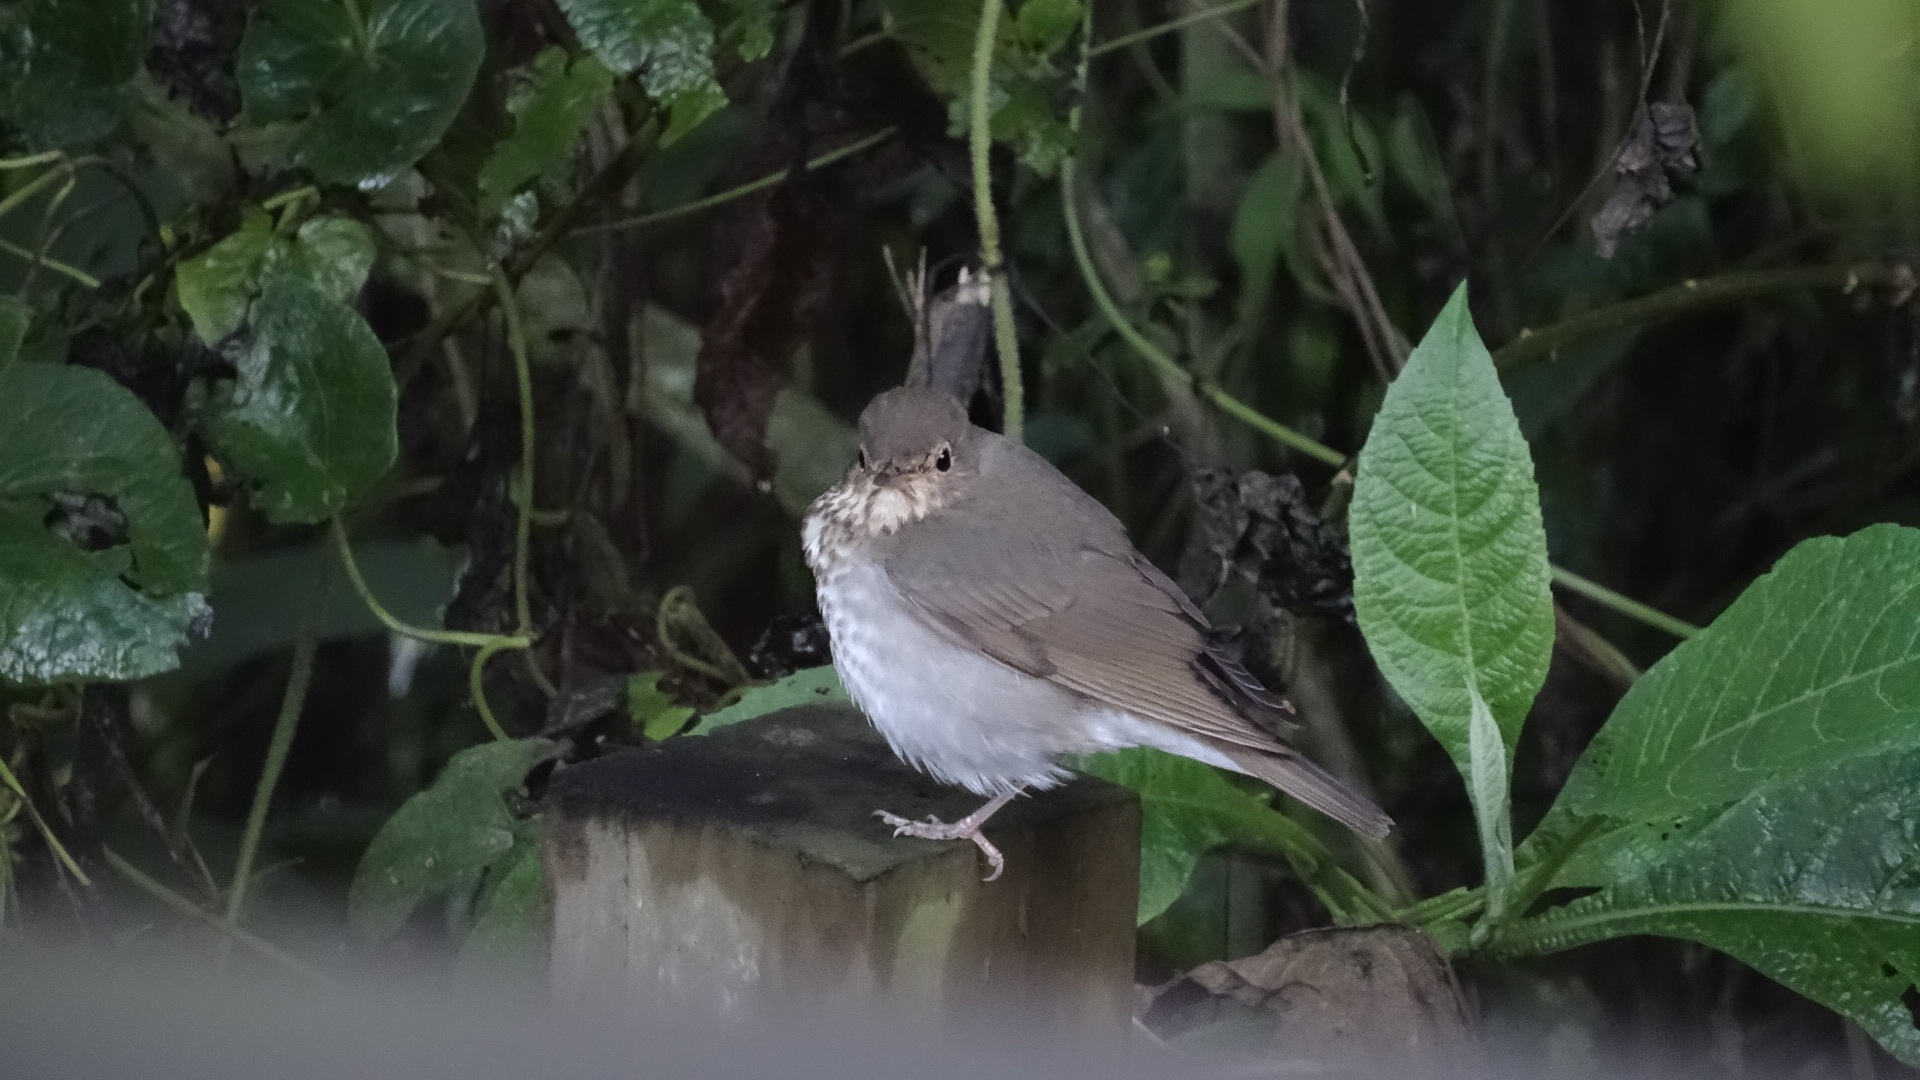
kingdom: Animalia
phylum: Chordata
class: Aves
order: Passeriformes
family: Turdidae
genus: Catharus
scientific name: Catharus ustulatus
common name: Swainson's thrush
